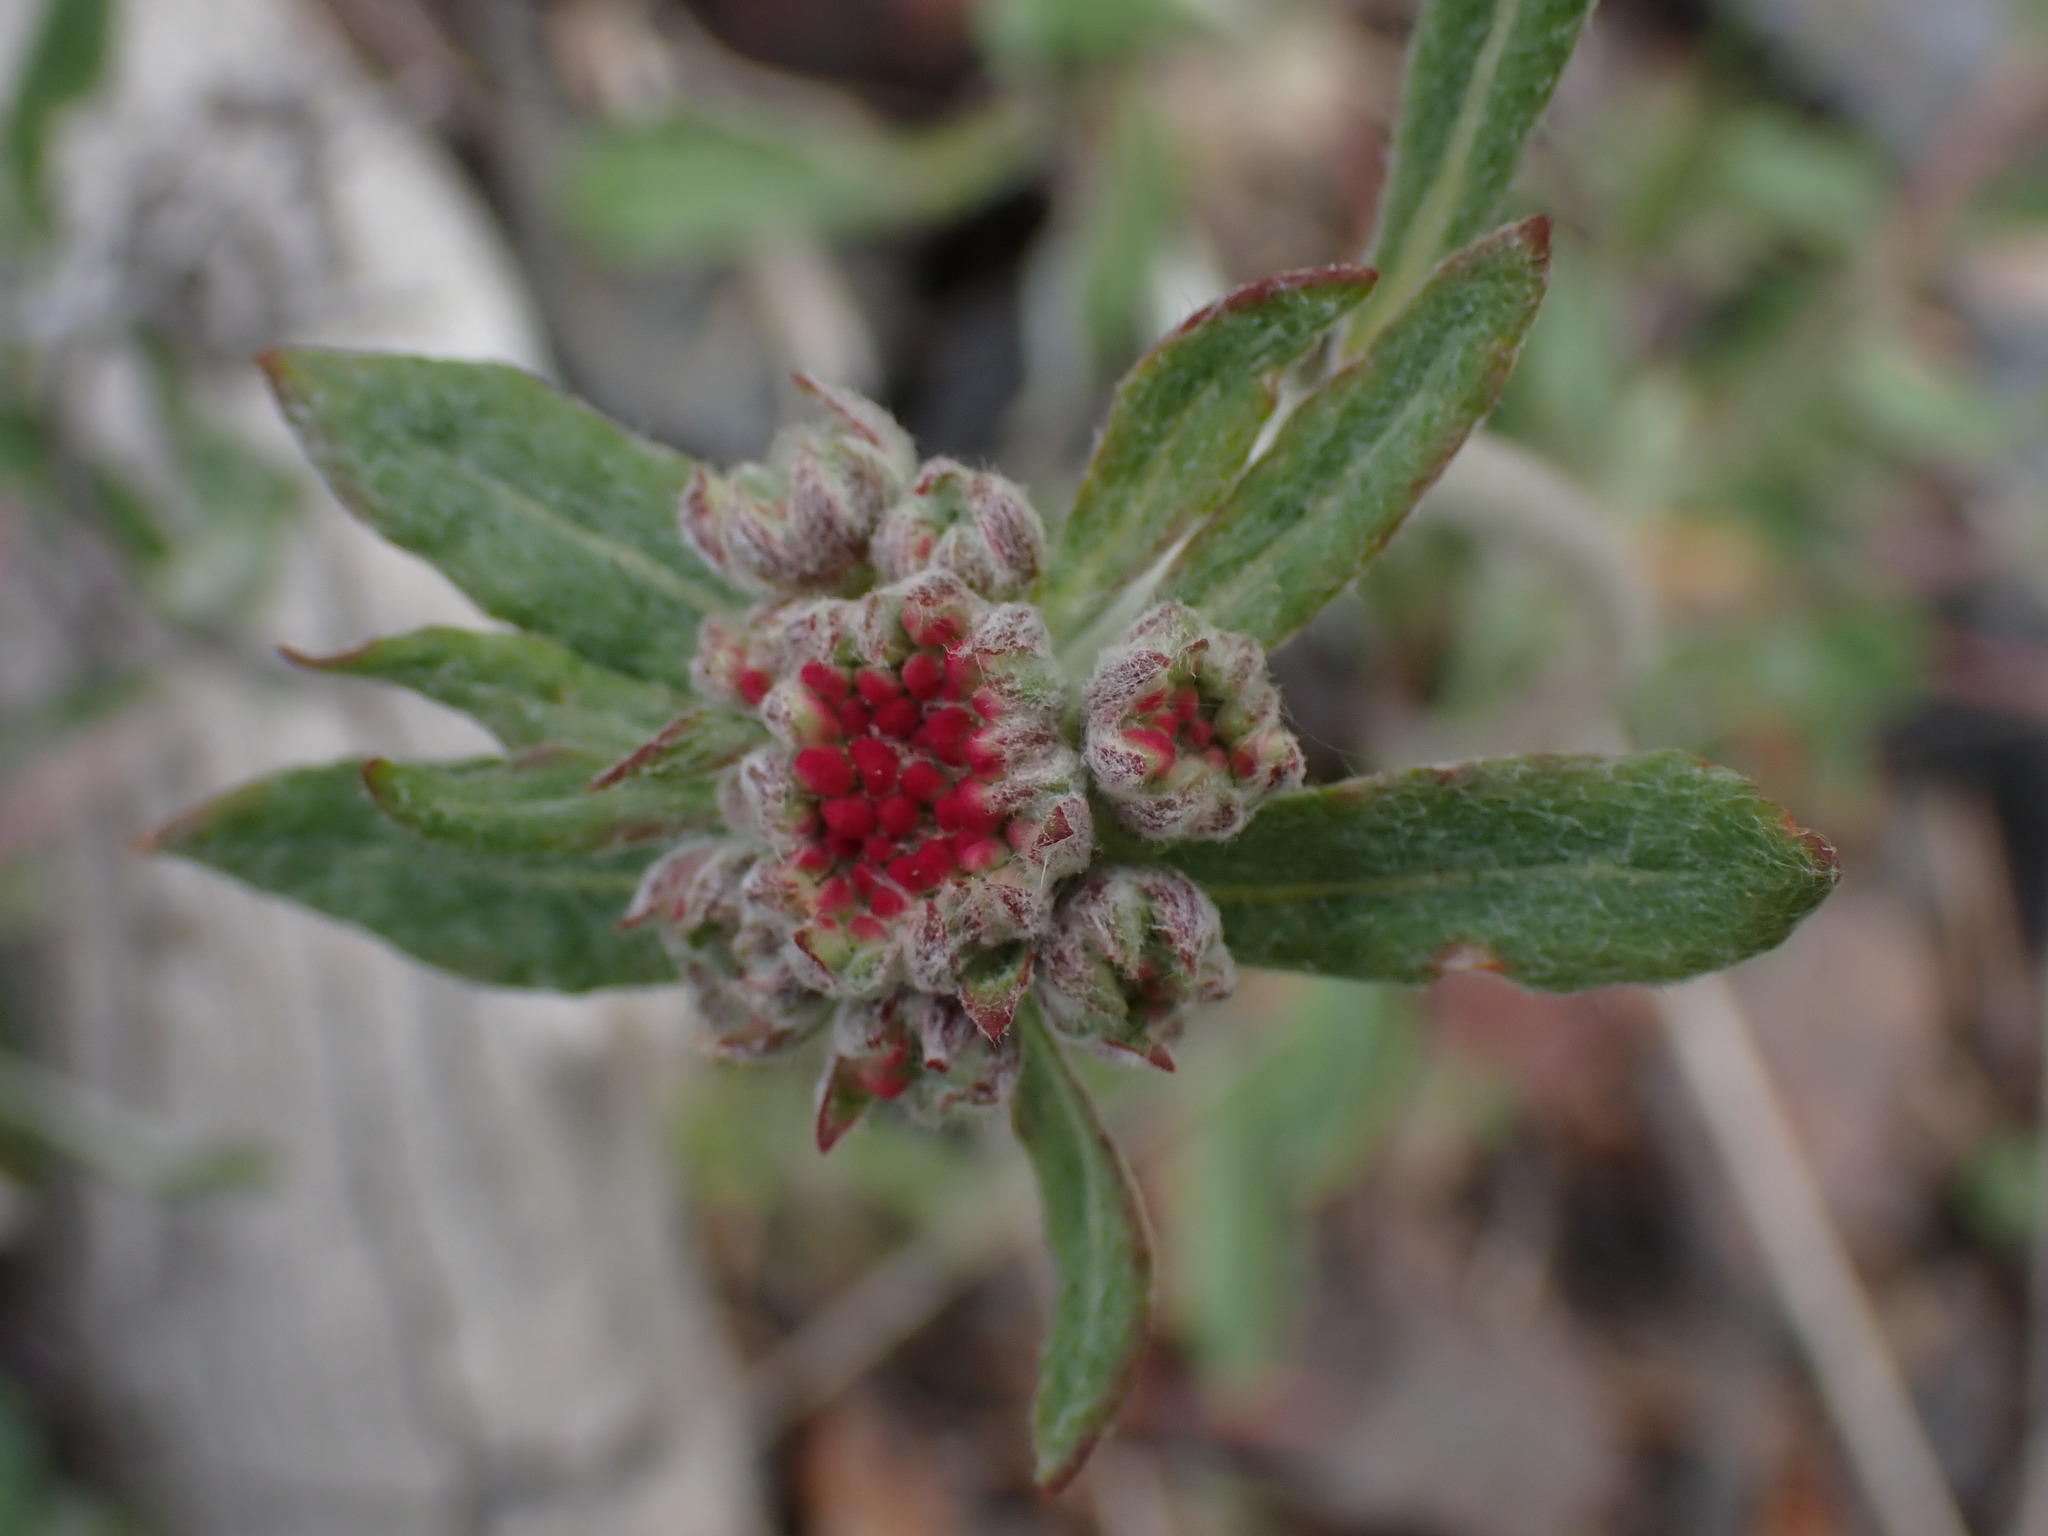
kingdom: Plantae
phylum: Tracheophyta
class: Magnoliopsida
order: Caryophyllales
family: Polygonaceae
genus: Eriogonum
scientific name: Eriogonum heracleoides
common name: Wyeth's buckwheat
